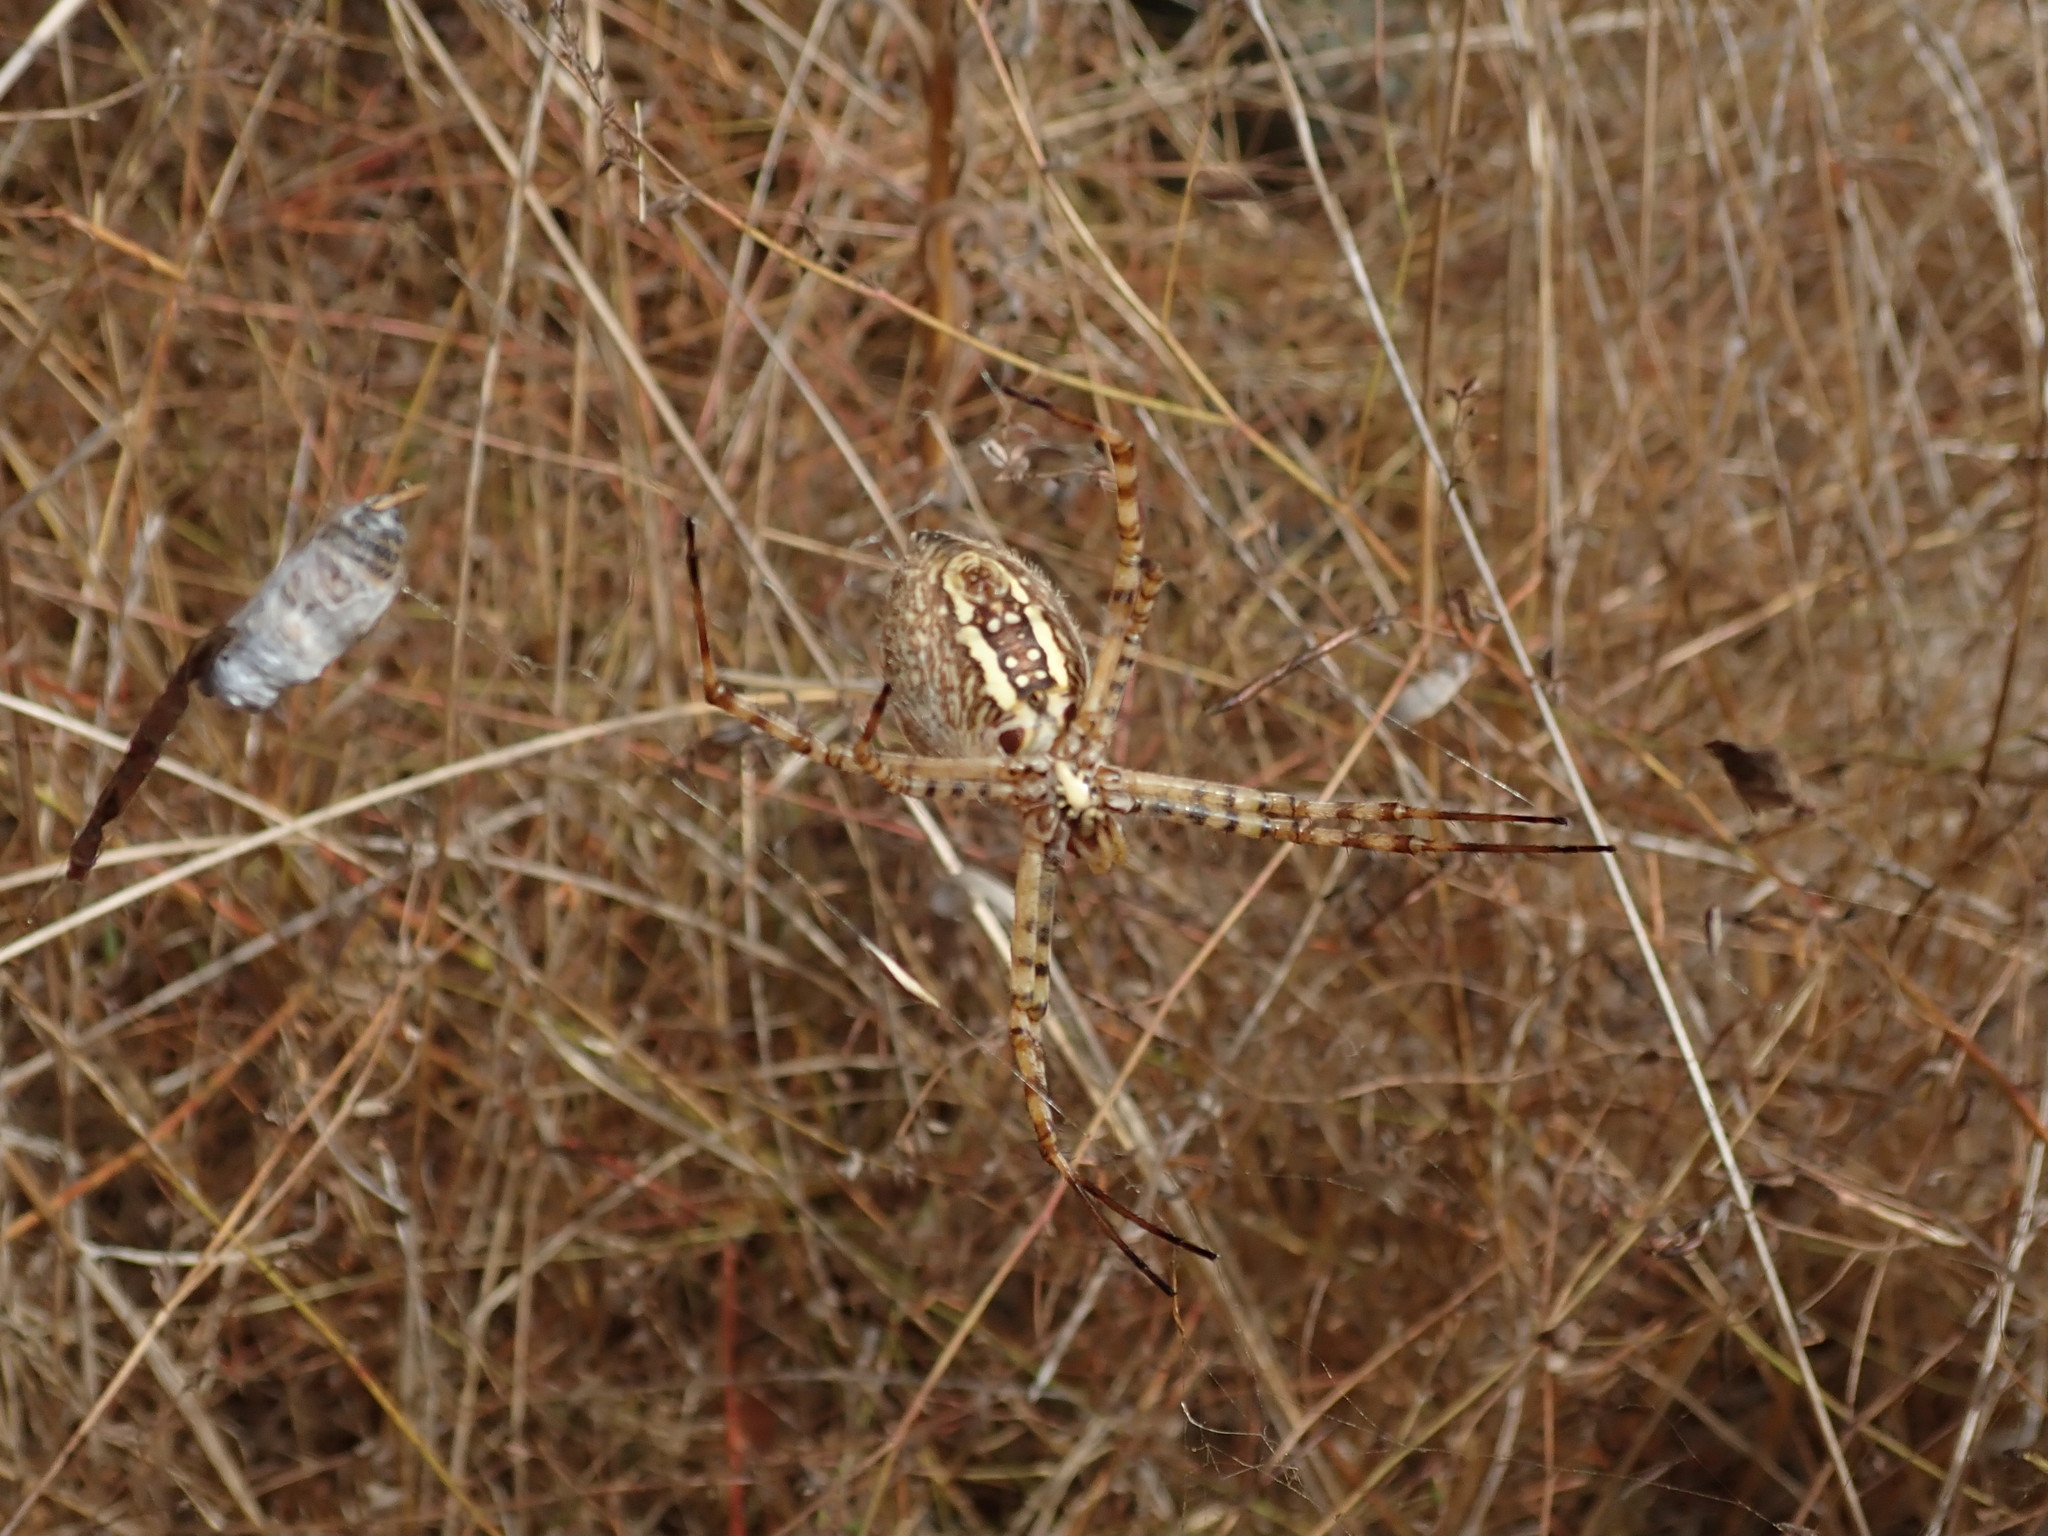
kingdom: Animalia
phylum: Arthropoda
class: Arachnida
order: Araneae
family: Araneidae
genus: Argiope
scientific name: Argiope trifasciata
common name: Banded garden spider
